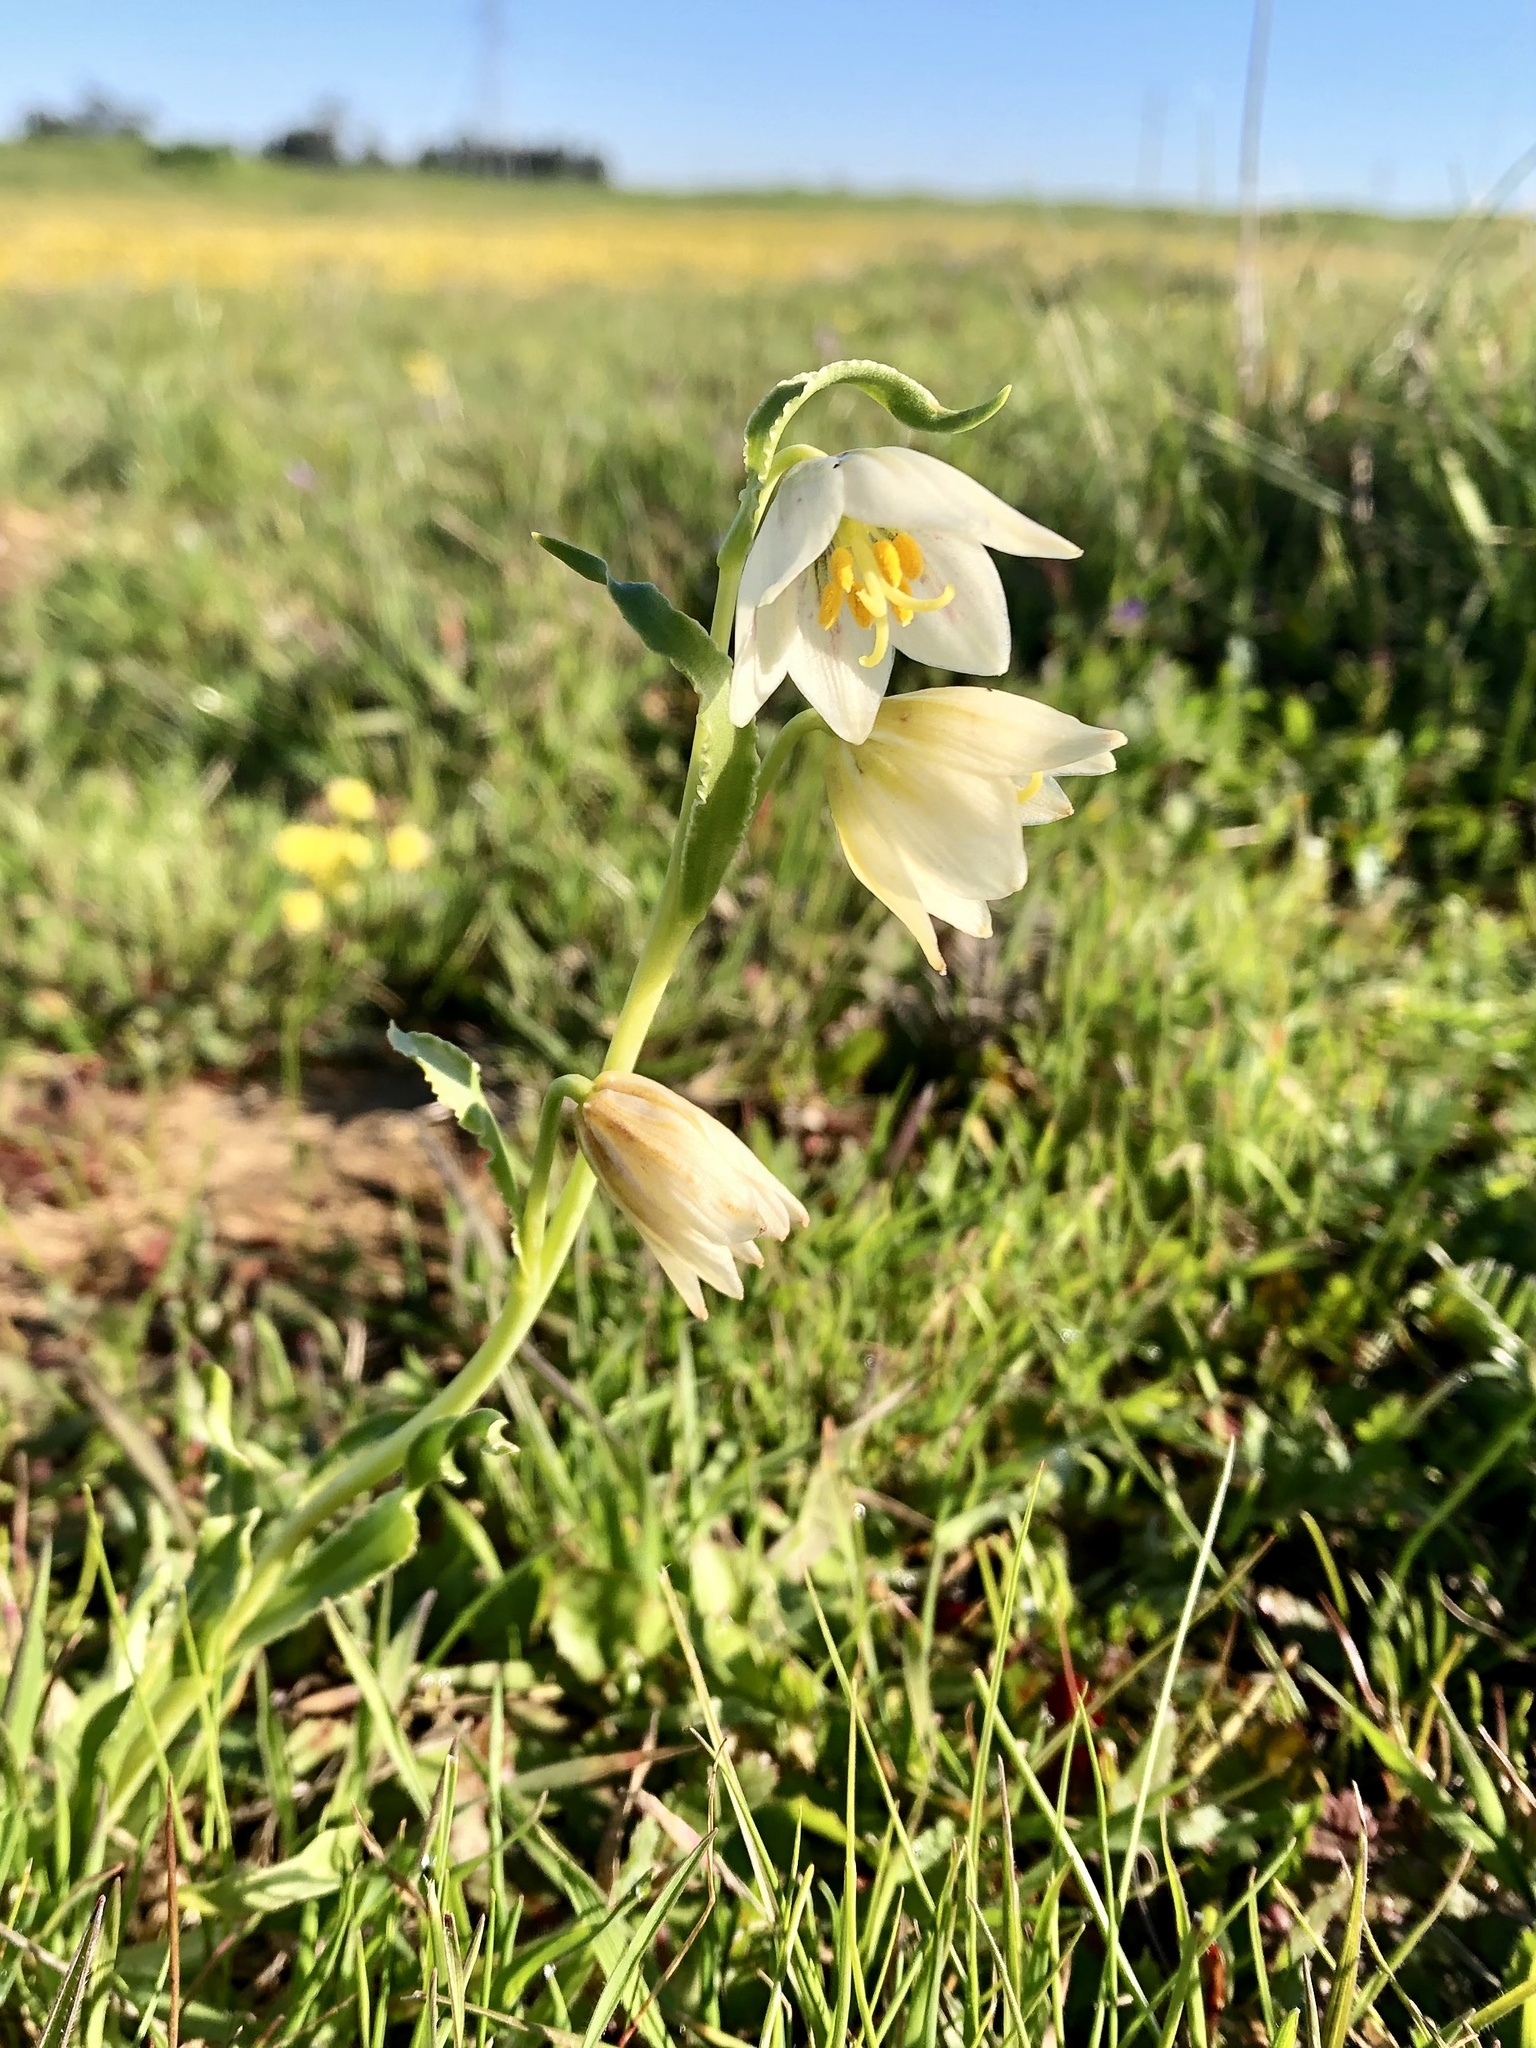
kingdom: Plantae
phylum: Tracheophyta
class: Liliopsida
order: Liliales
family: Liliaceae
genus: Fritillaria
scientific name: Fritillaria liliacea
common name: Fragrant fritillary
